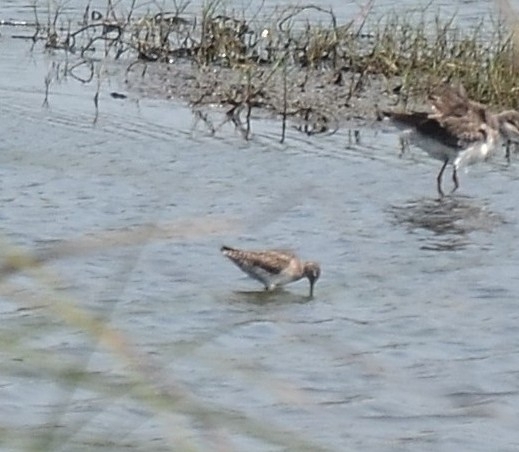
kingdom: Animalia
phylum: Chordata
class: Aves
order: Charadriiformes
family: Scolopacidae
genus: Tringa
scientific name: Tringa glareola
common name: Wood sandpiper
